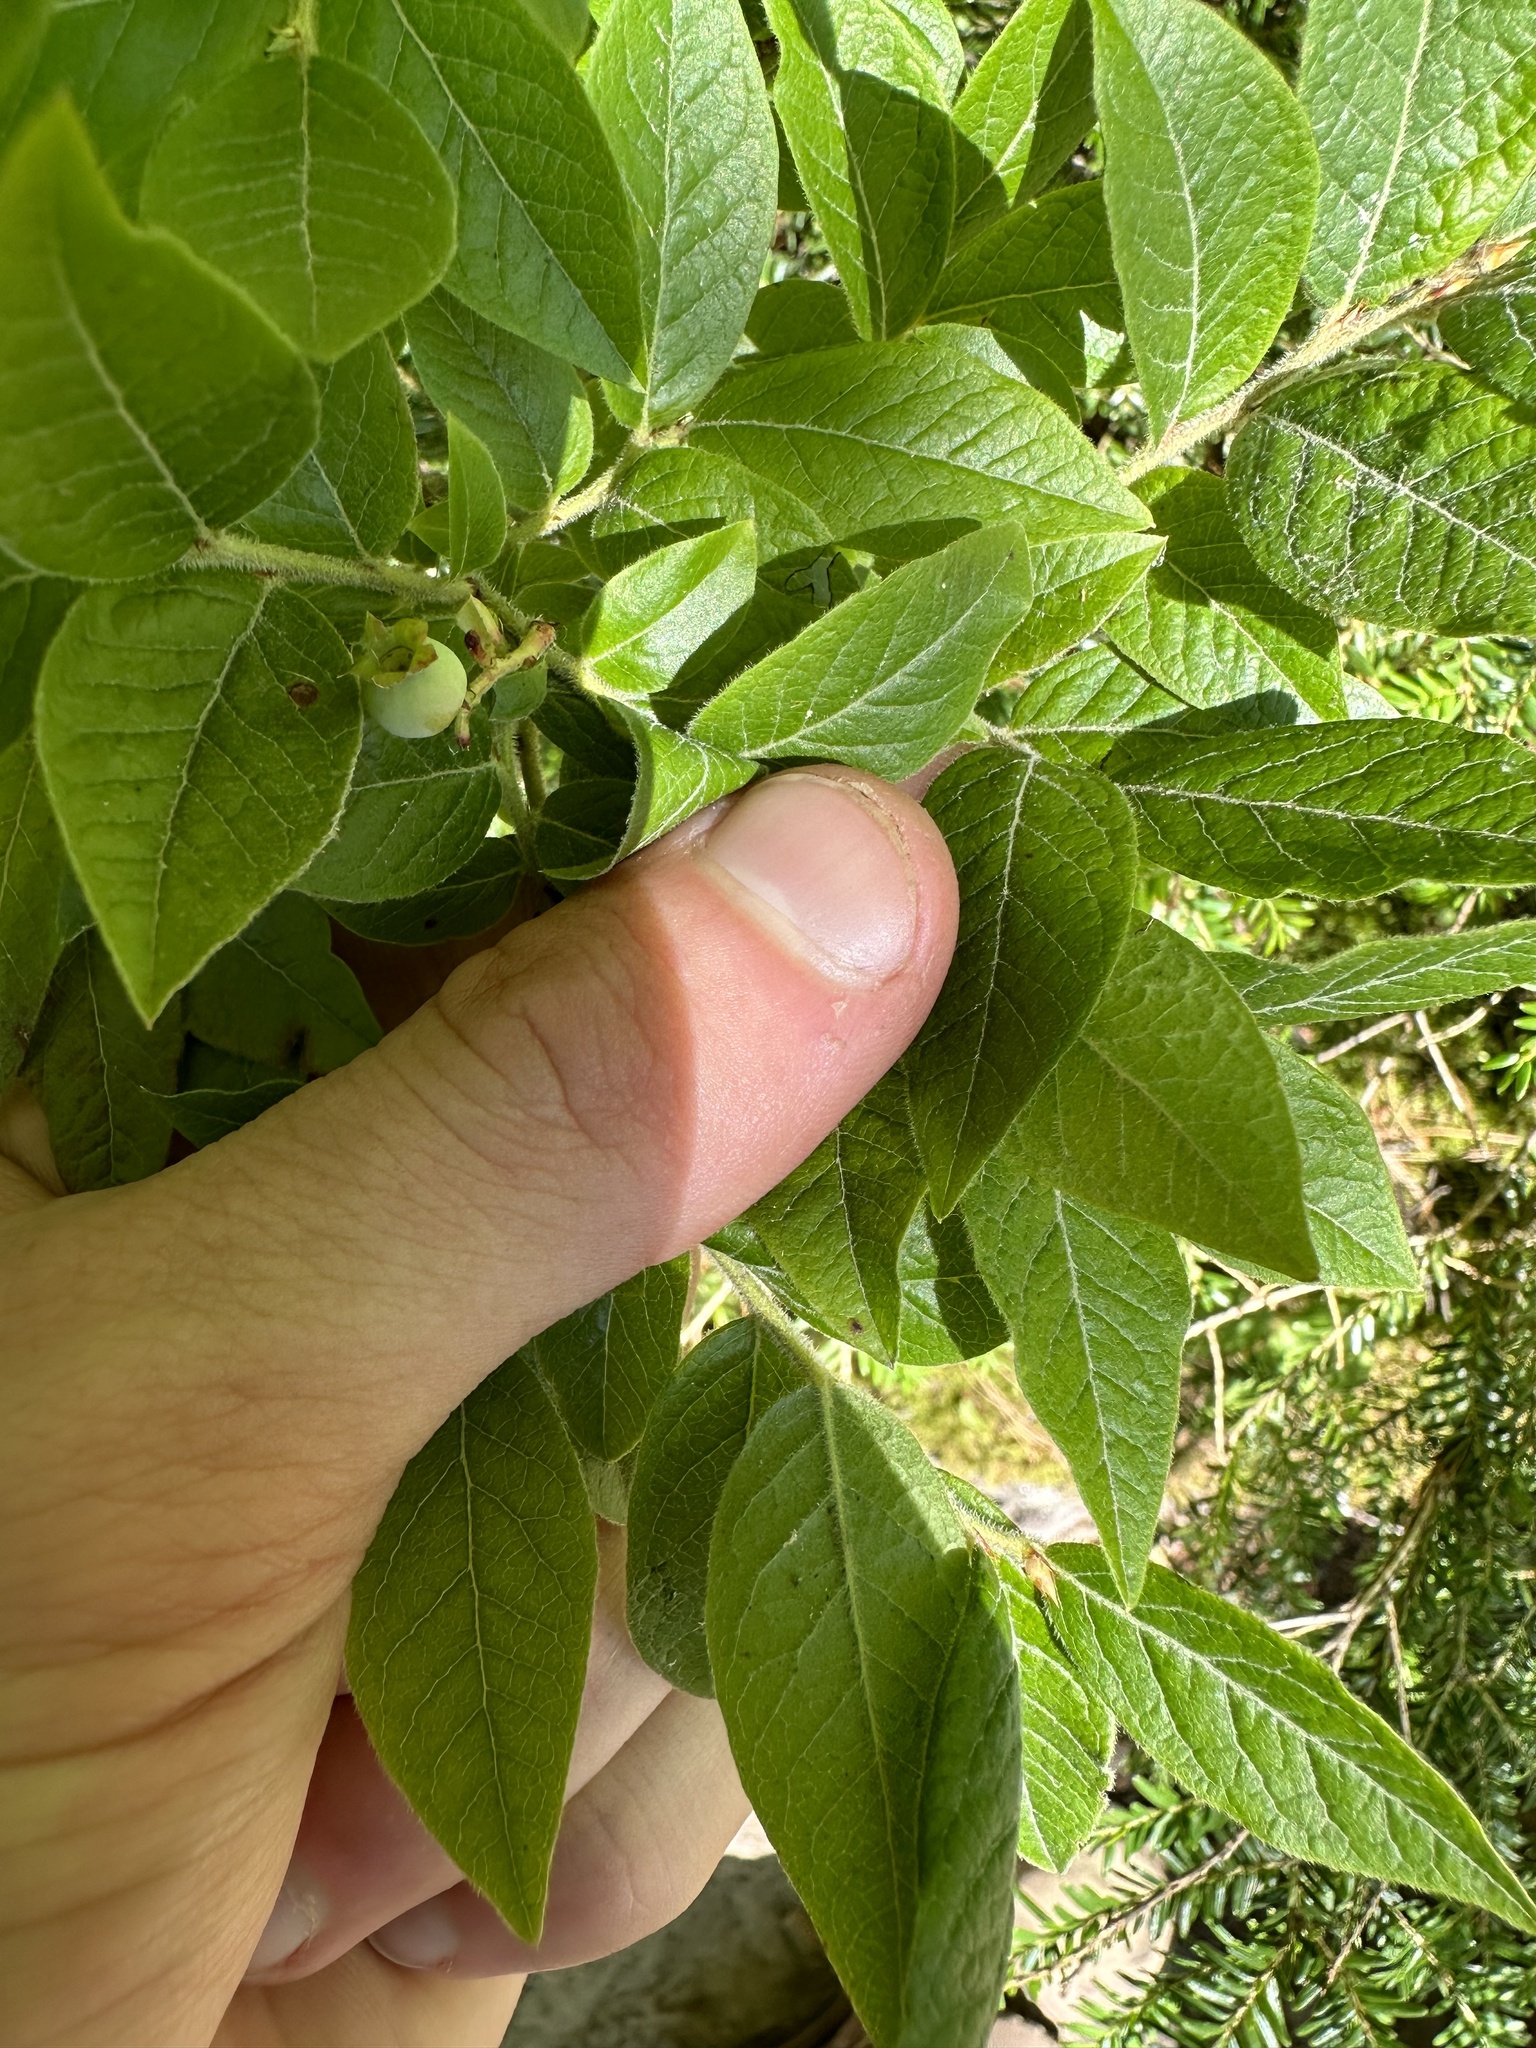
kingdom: Plantae
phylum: Tracheophyta
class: Magnoliopsida
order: Ericales
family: Ericaceae
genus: Vaccinium
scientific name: Vaccinium myrtilloides
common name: Canada blueberry
